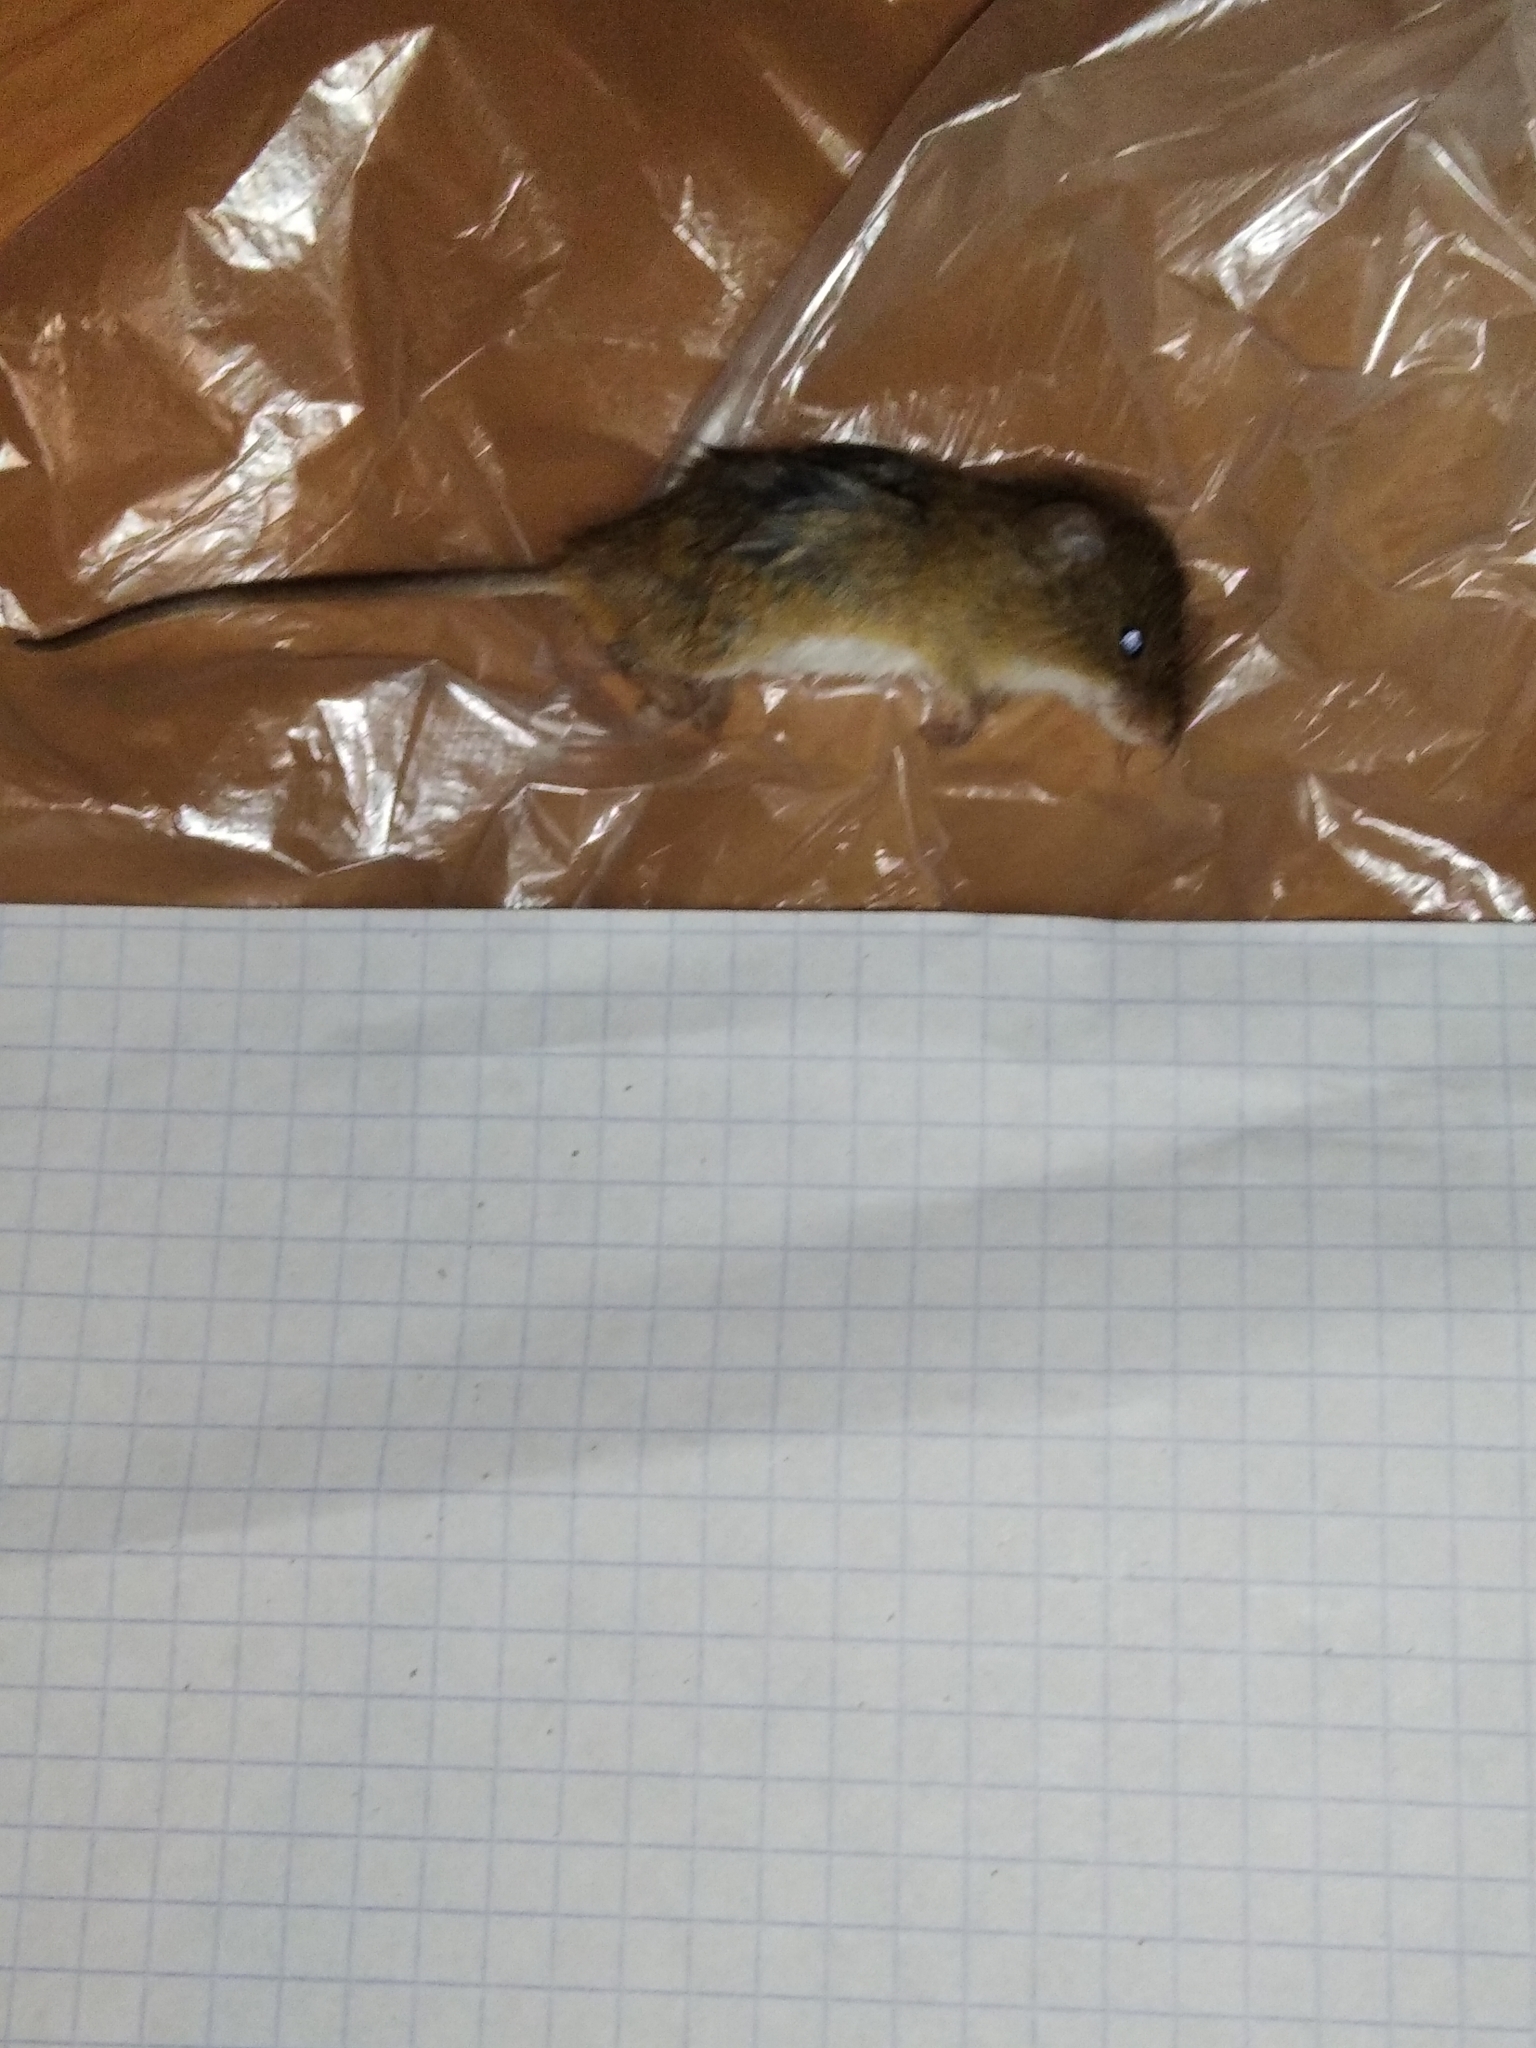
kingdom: Animalia
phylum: Chordata
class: Mammalia
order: Rodentia
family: Muridae
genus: Micromys
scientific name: Micromys minutus
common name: Harvest mouse
